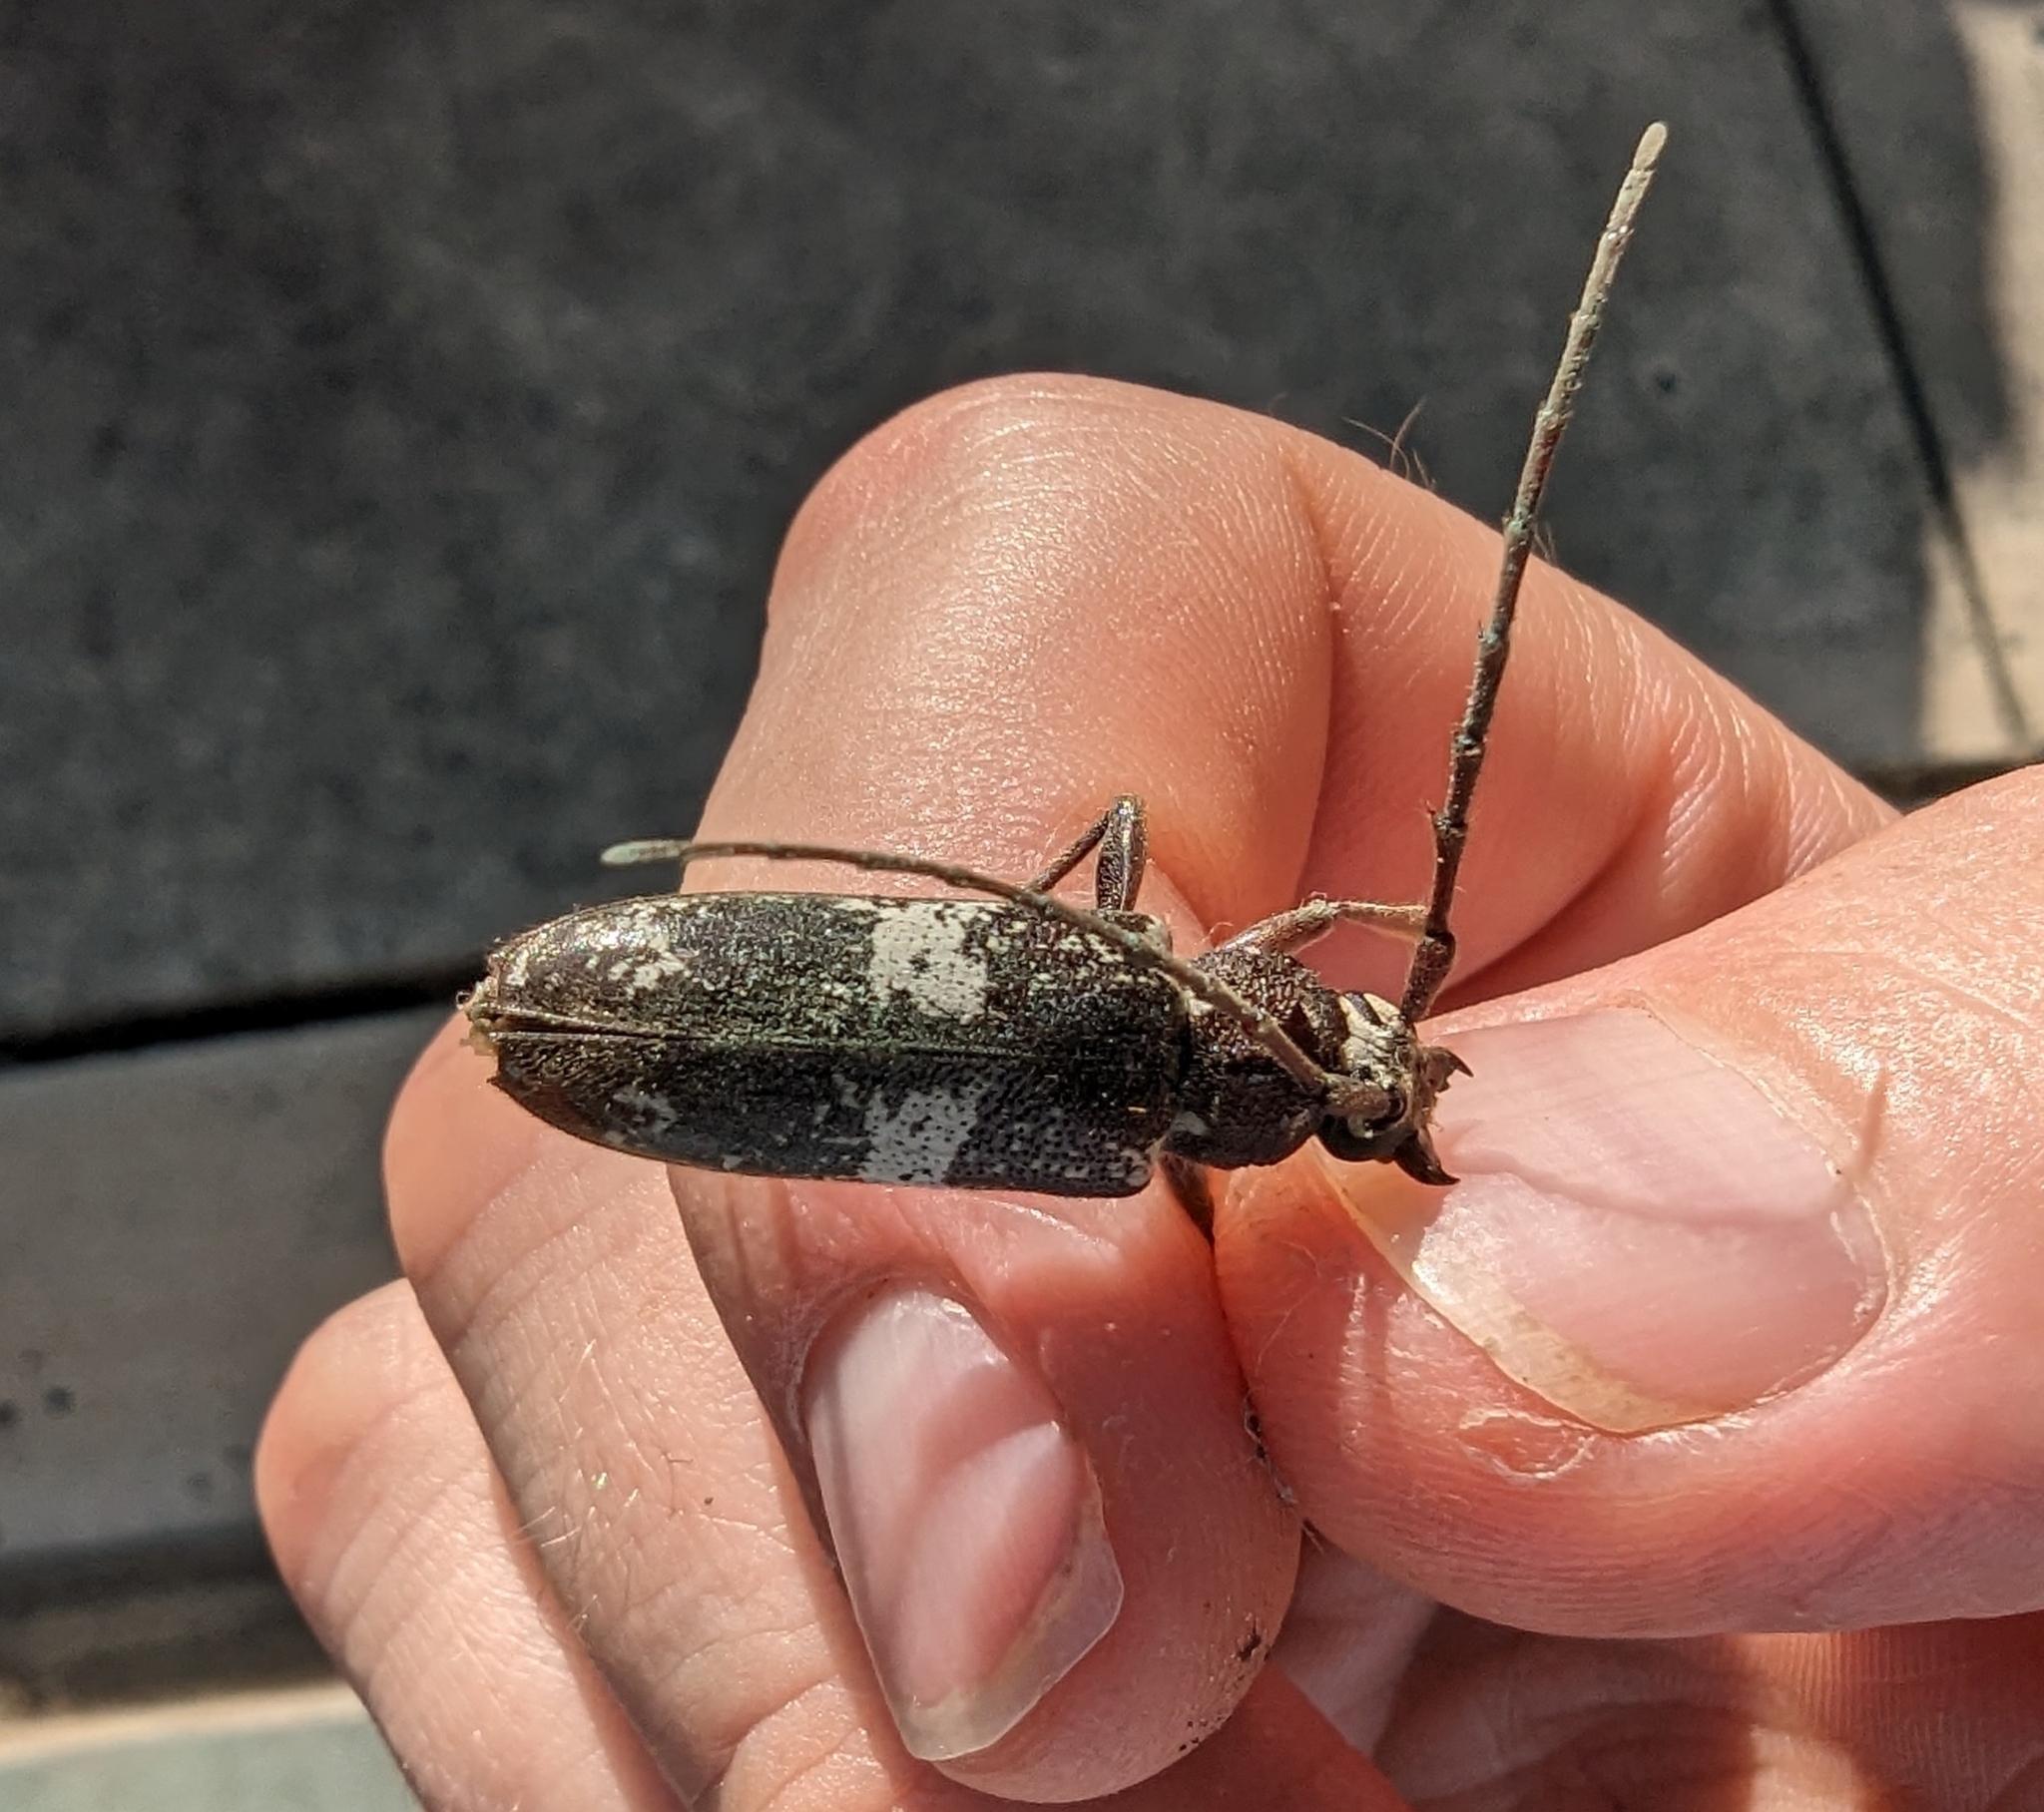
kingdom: Animalia
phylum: Arthropoda
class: Insecta
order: Coleoptera
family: Cerambycidae
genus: Enaphalodes
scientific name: Enaphalodes taeniatus
